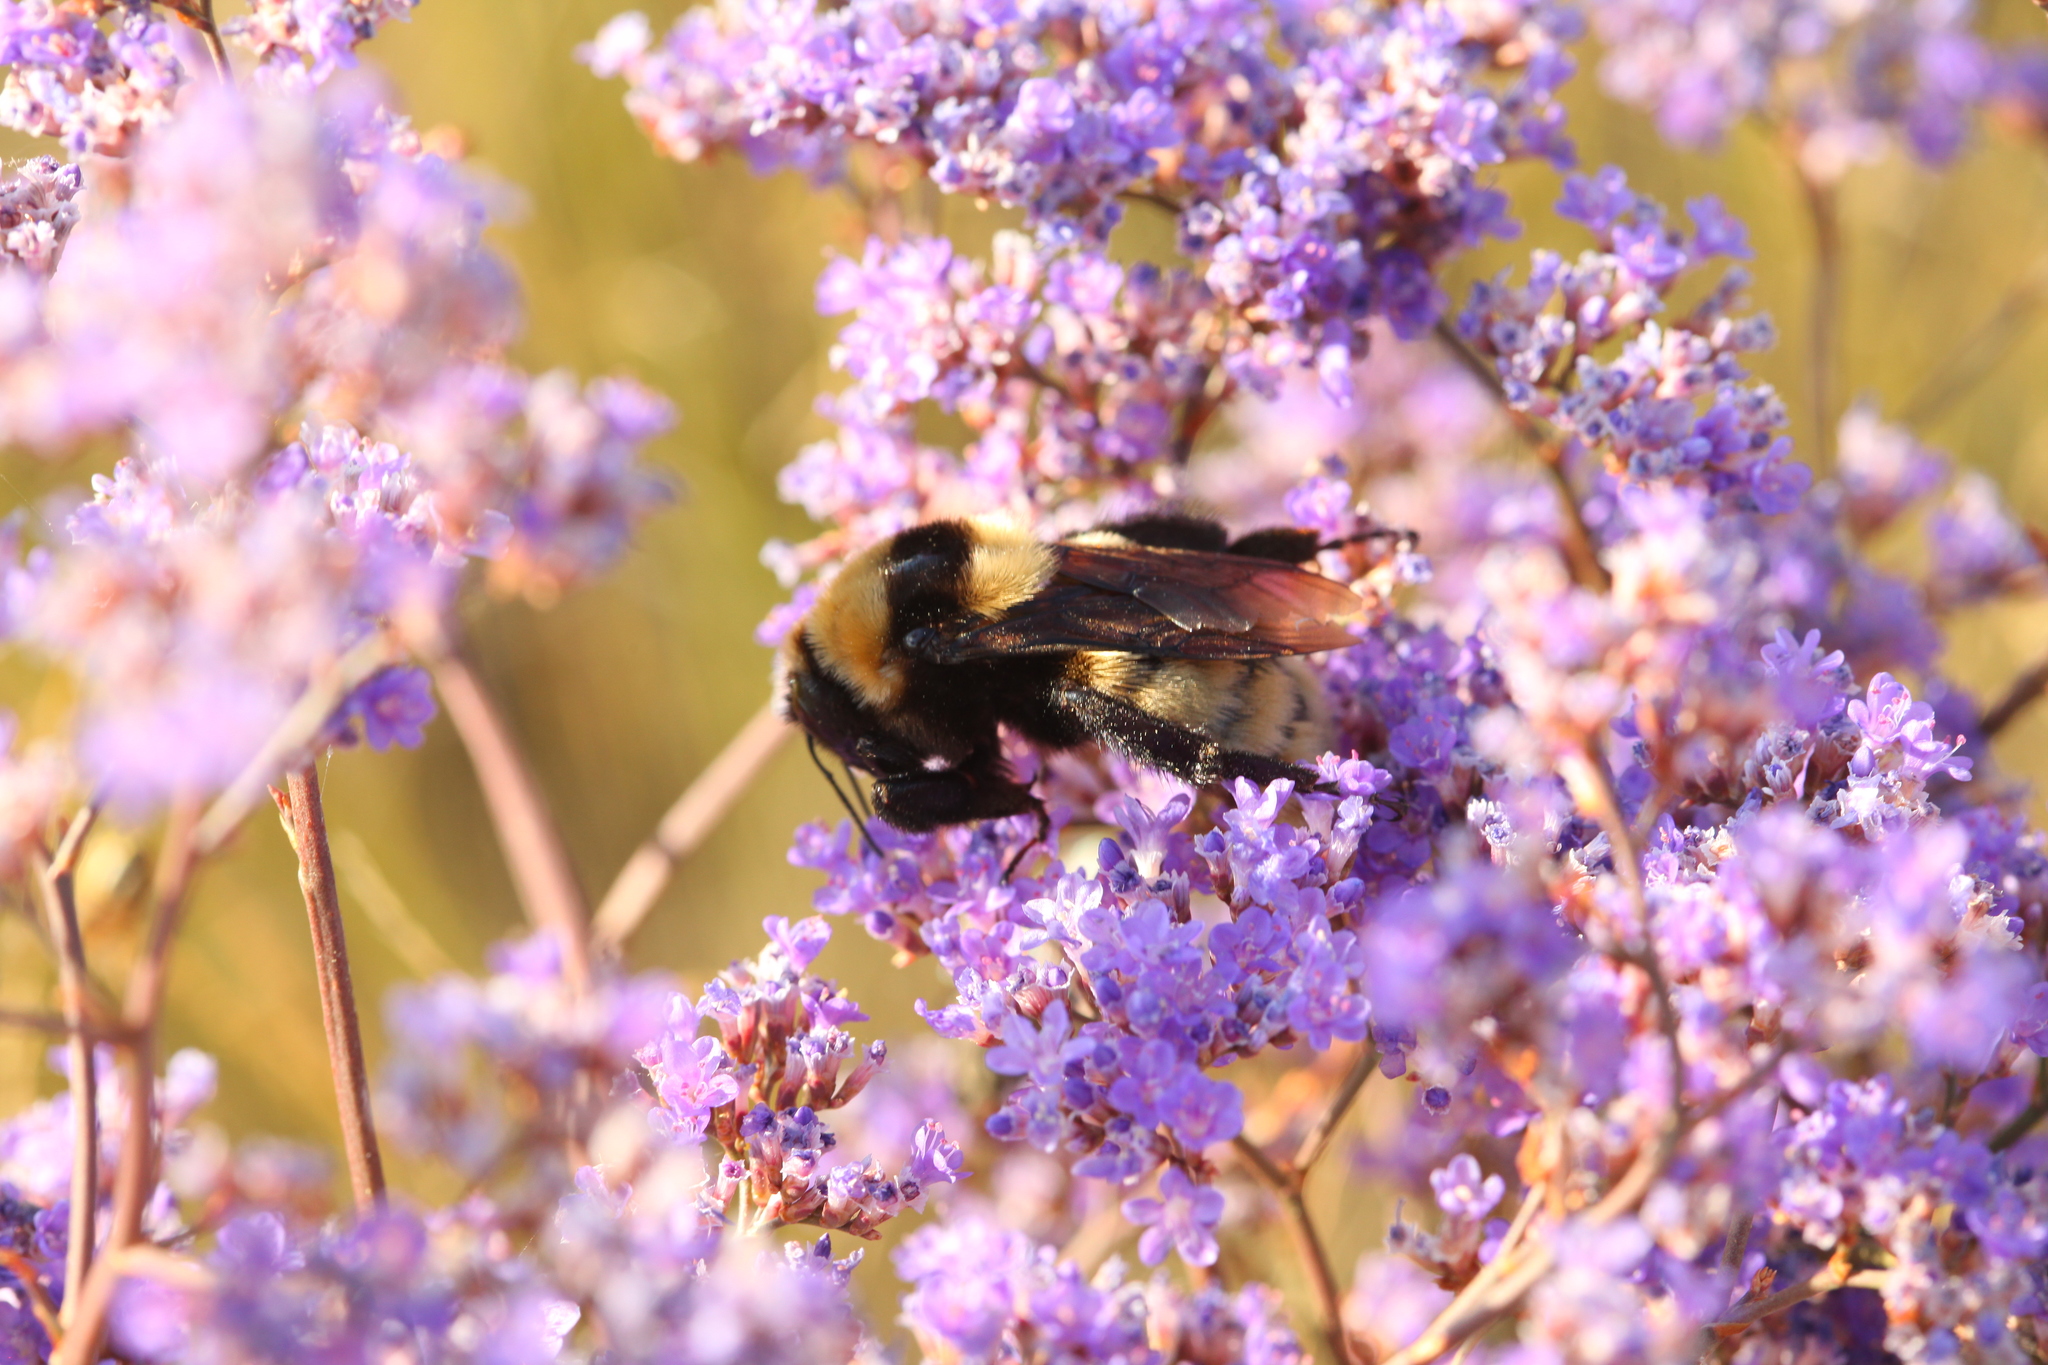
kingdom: Animalia
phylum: Arthropoda
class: Insecta
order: Hymenoptera
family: Apidae
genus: Bombus
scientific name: Bombus fragrans
